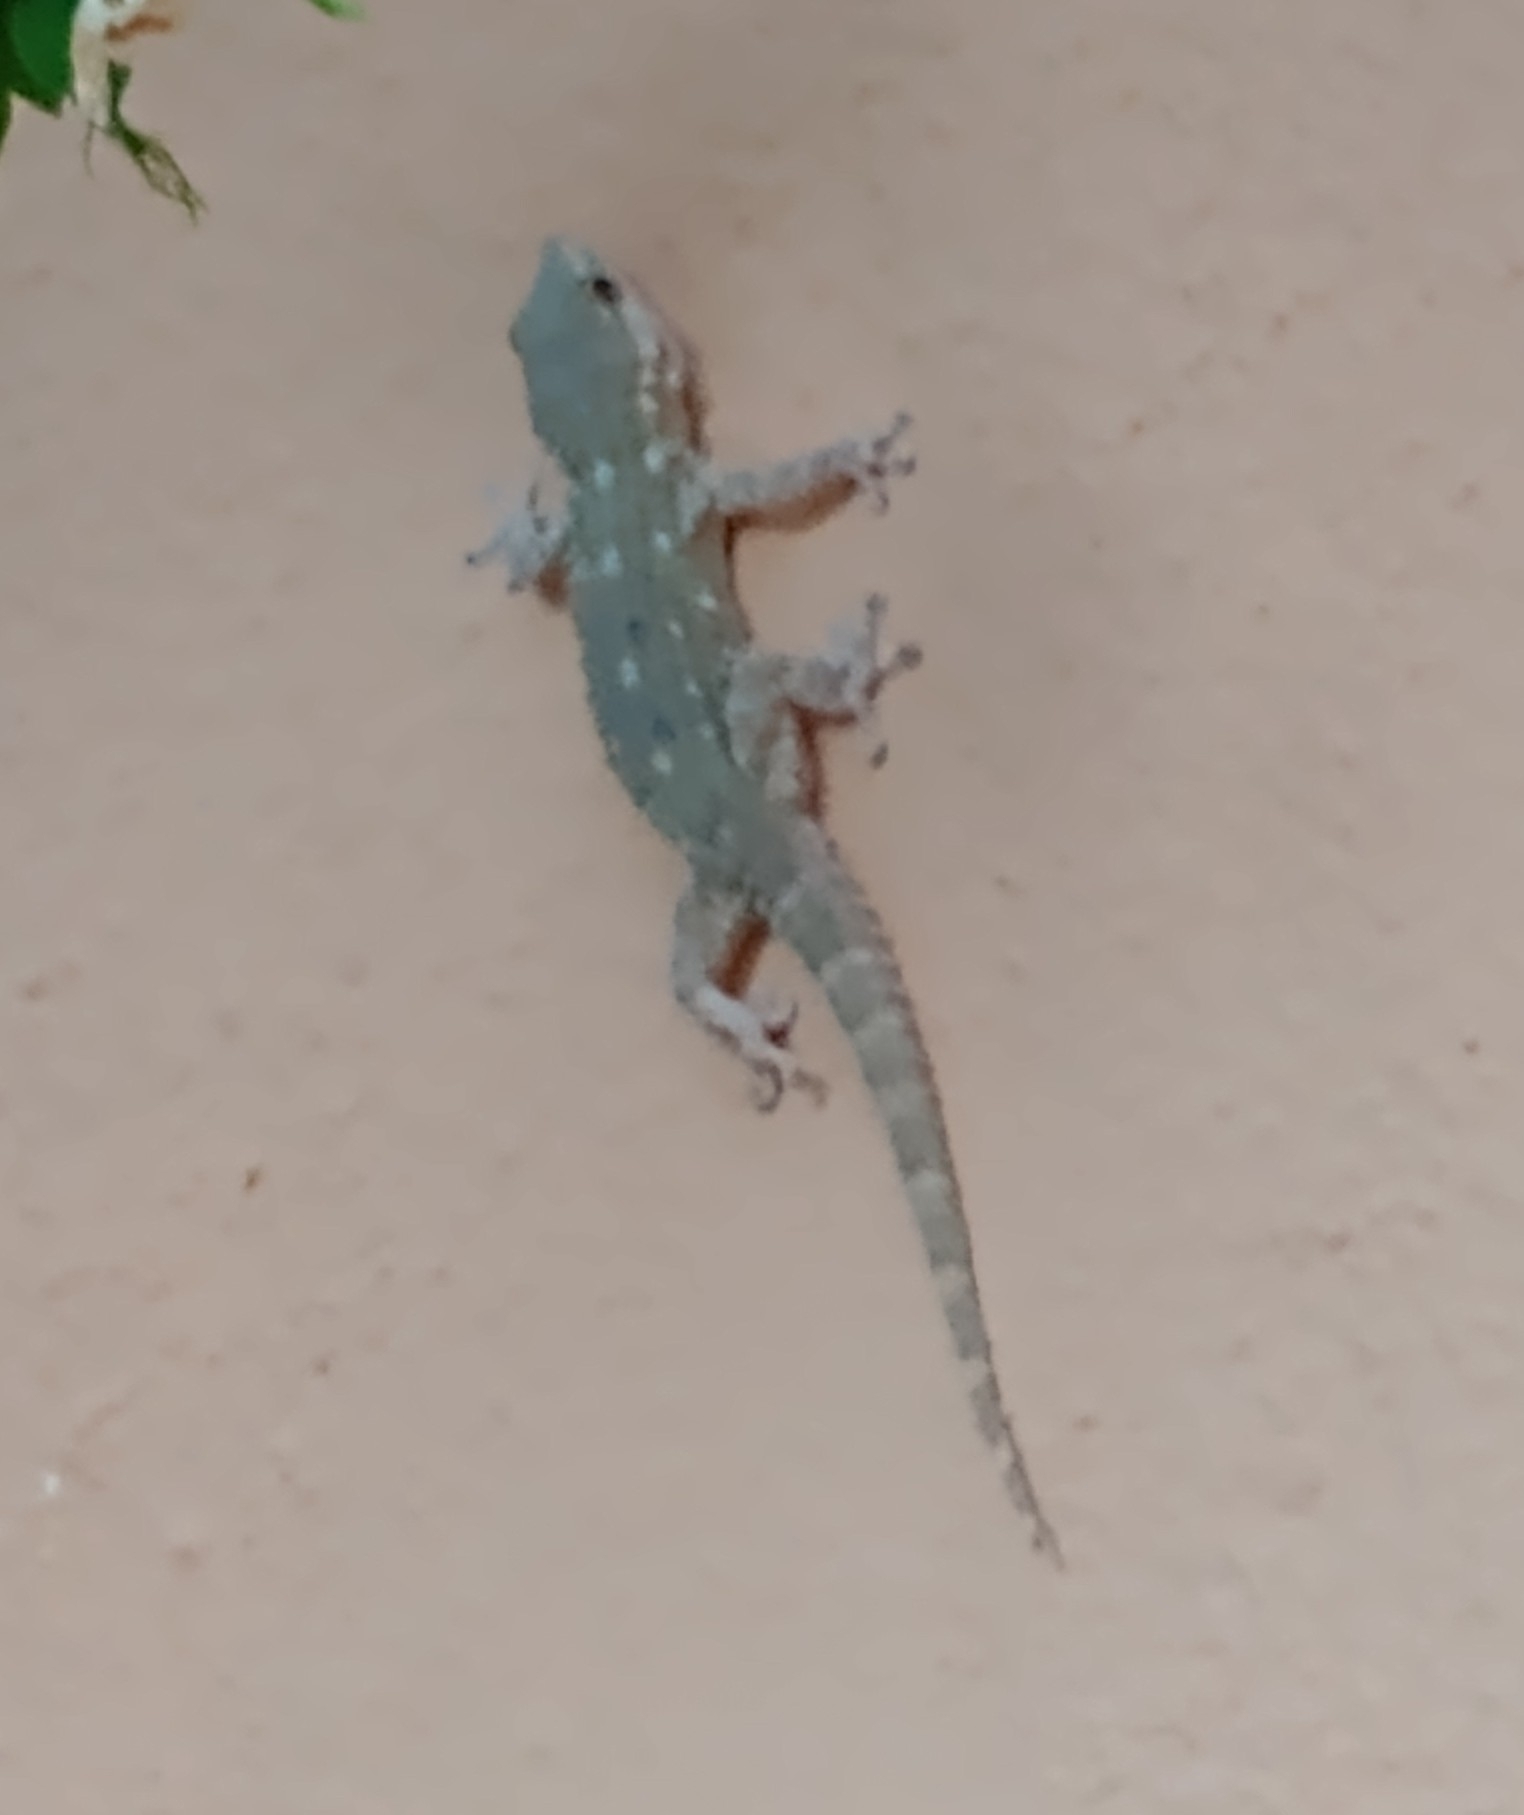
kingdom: Animalia
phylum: Chordata
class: Squamata
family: Phyllodactylidae
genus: Tarentola
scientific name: Tarentola mauritanica
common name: Moorish gecko
